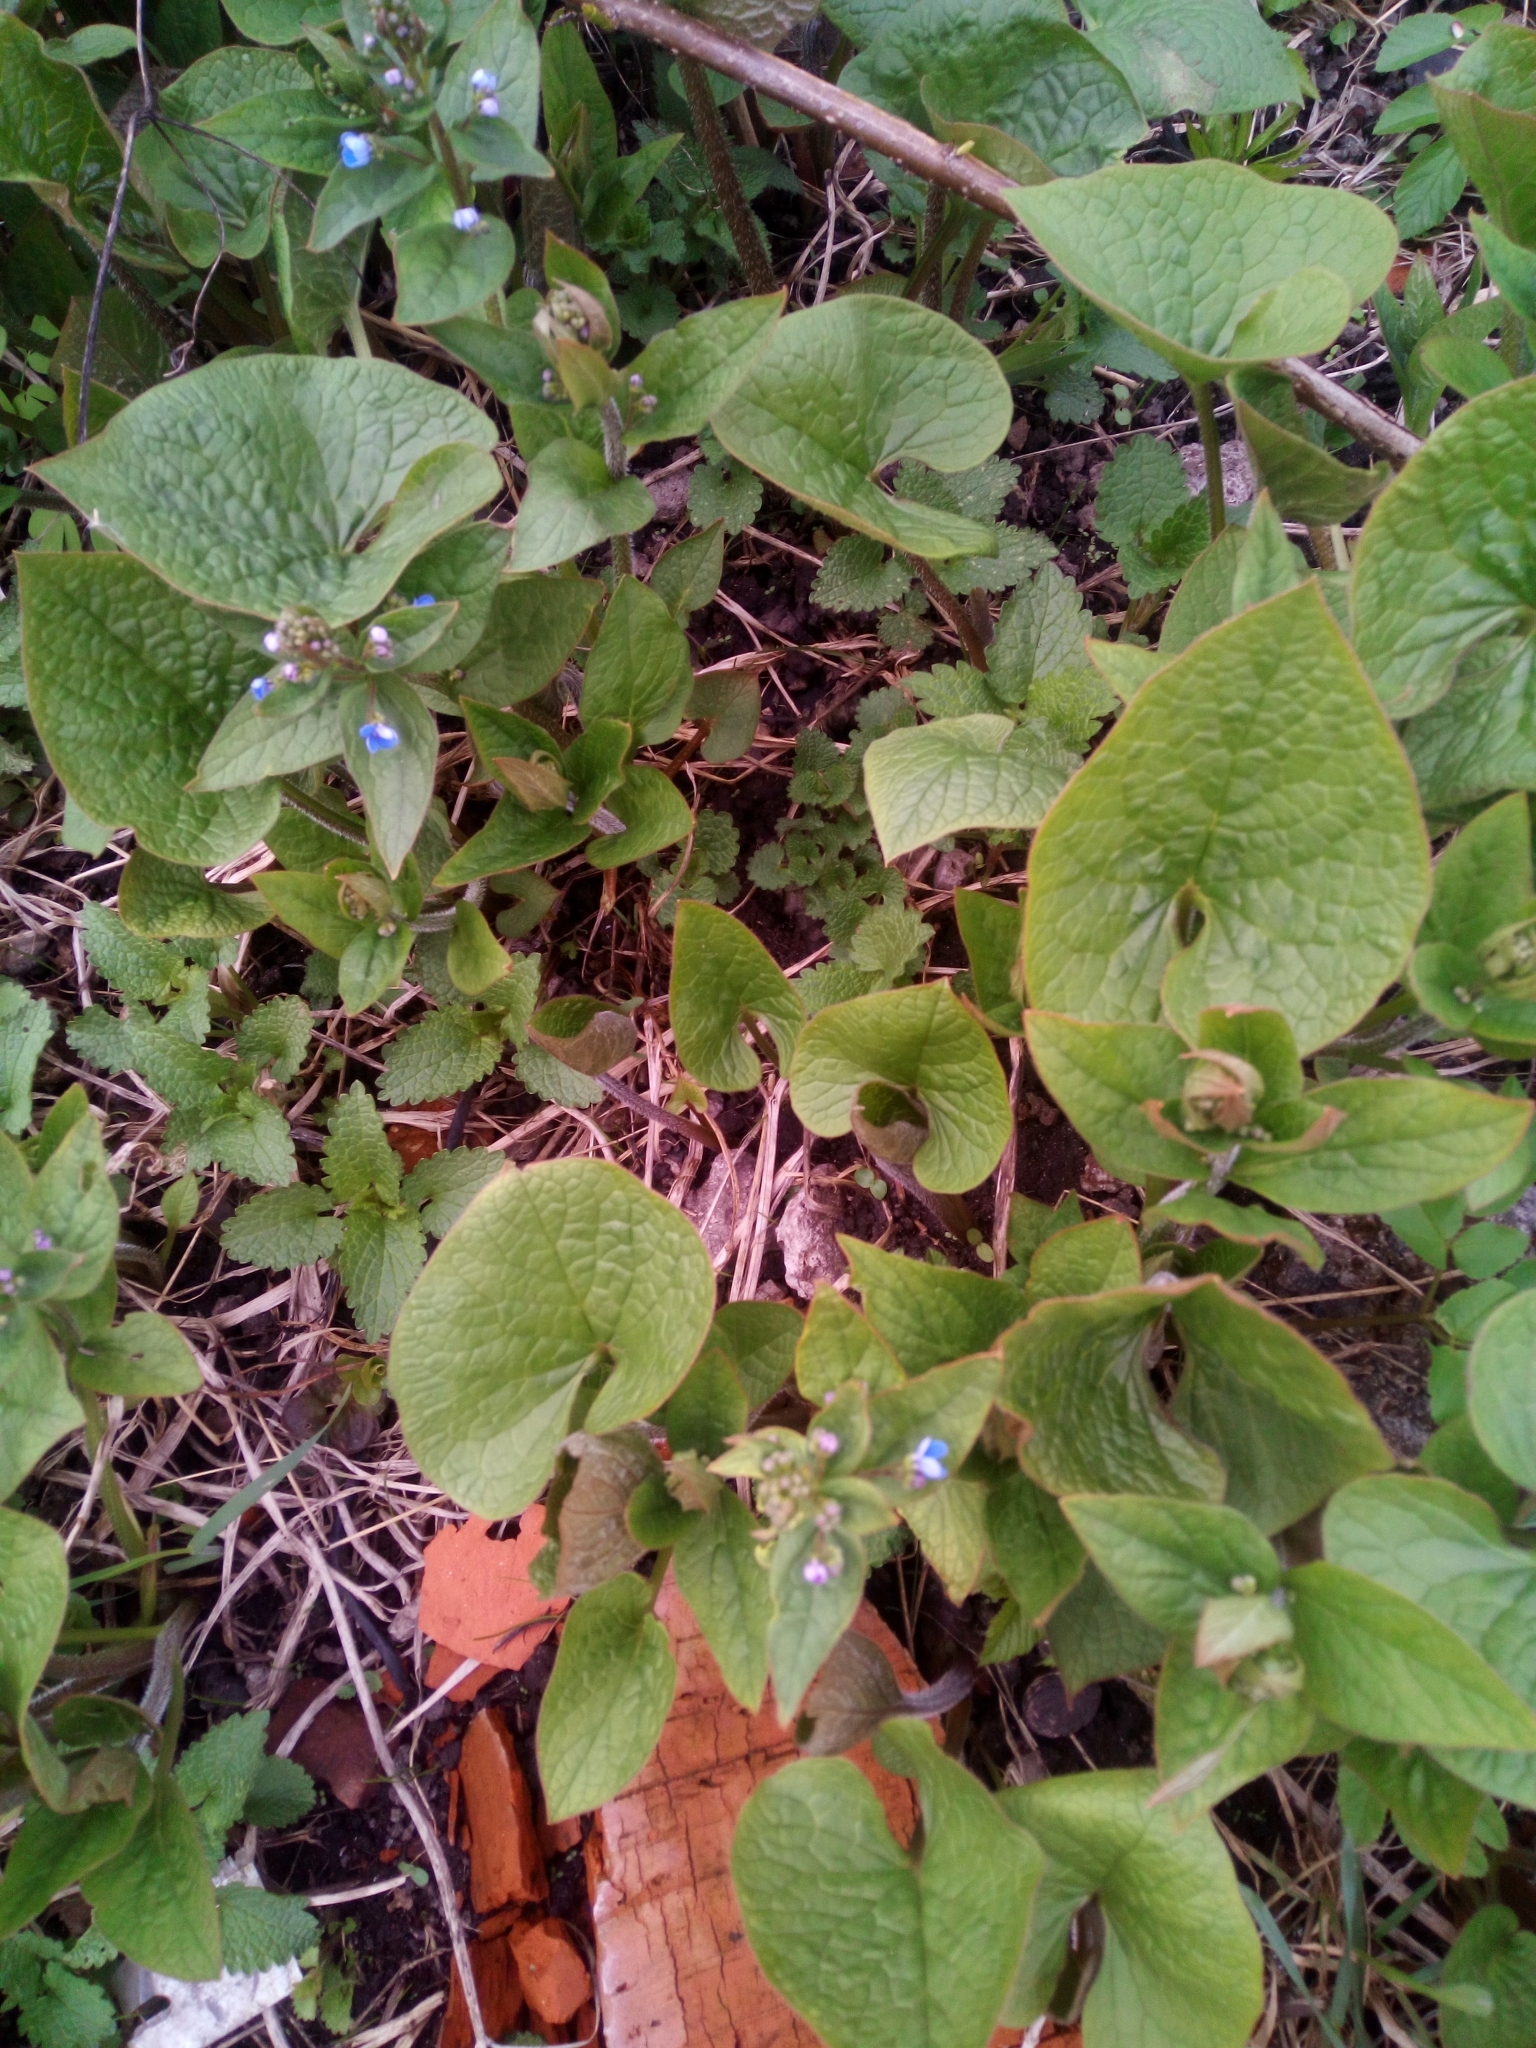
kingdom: Plantae
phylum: Tracheophyta
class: Magnoliopsida
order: Boraginales
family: Boraginaceae
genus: Brunnera
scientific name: Brunnera sibirica
